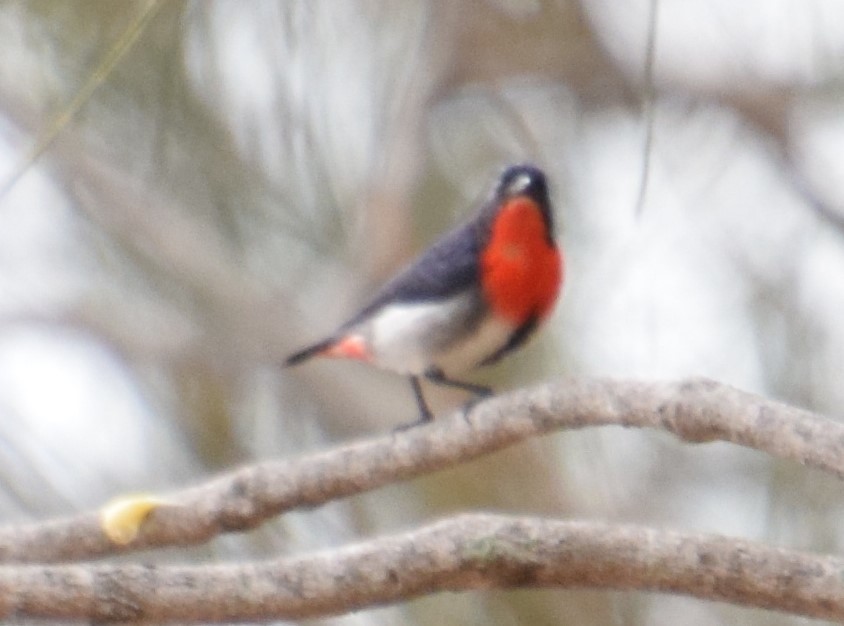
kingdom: Animalia
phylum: Chordata
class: Aves
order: Passeriformes
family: Dicaeidae
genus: Dicaeum
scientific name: Dicaeum hirundinaceum
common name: Mistletoebird
